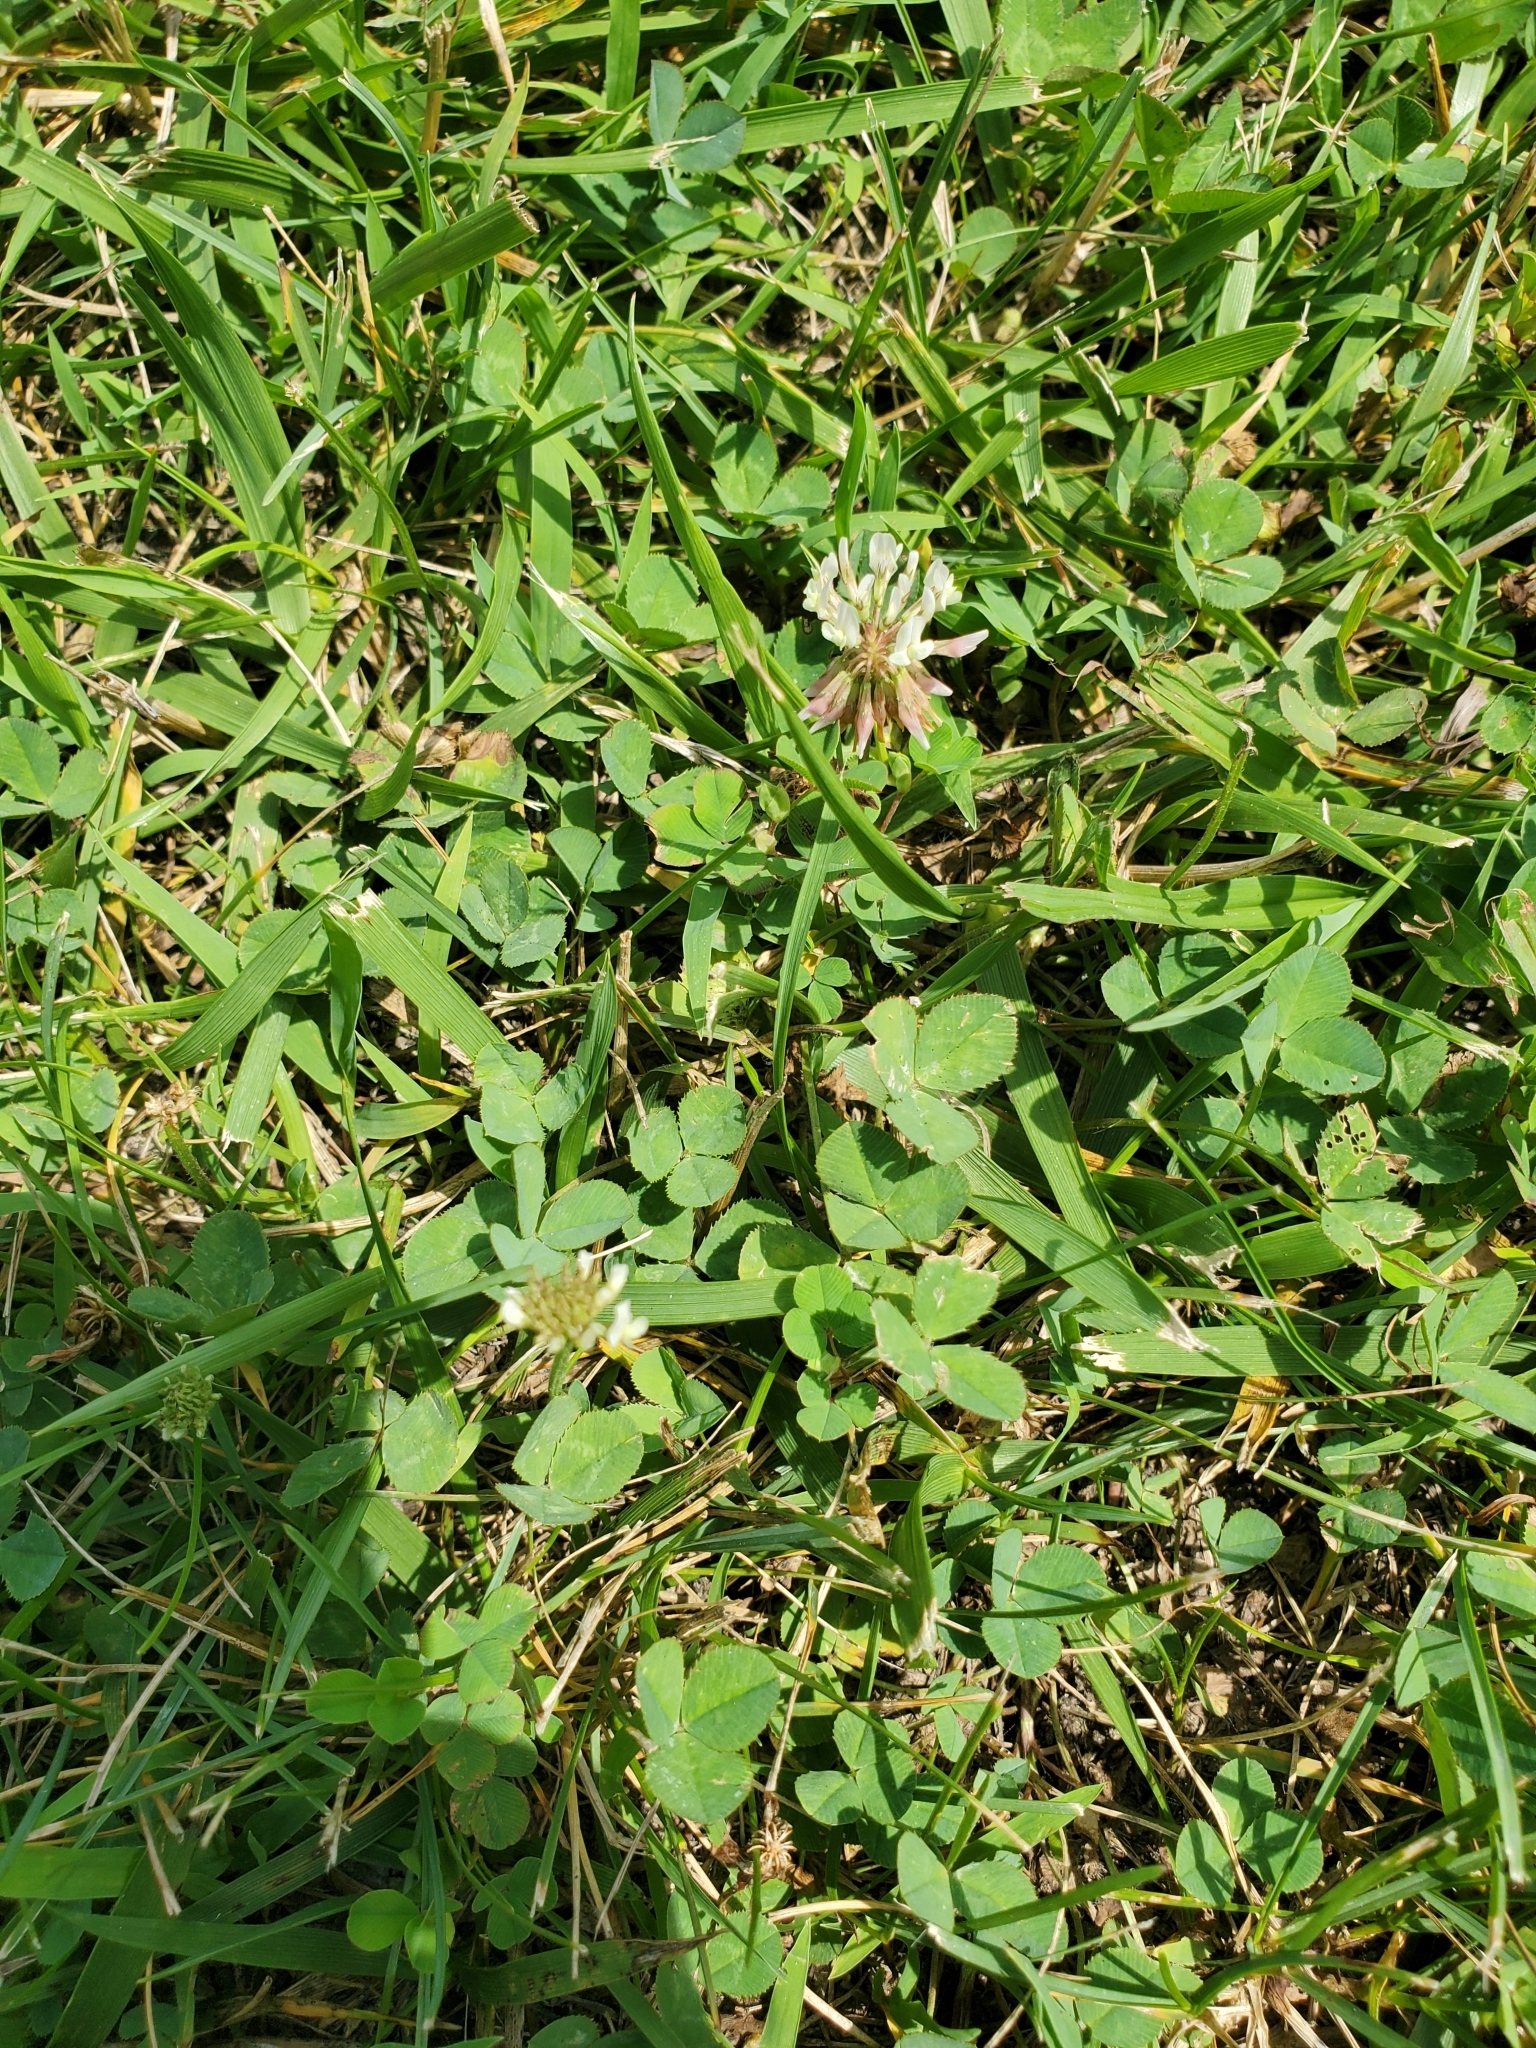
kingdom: Plantae
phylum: Tracheophyta
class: Magnoliopsida
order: Fabales
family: Fabaceae
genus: Trifolium
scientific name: Trifolium repens
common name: White clover
